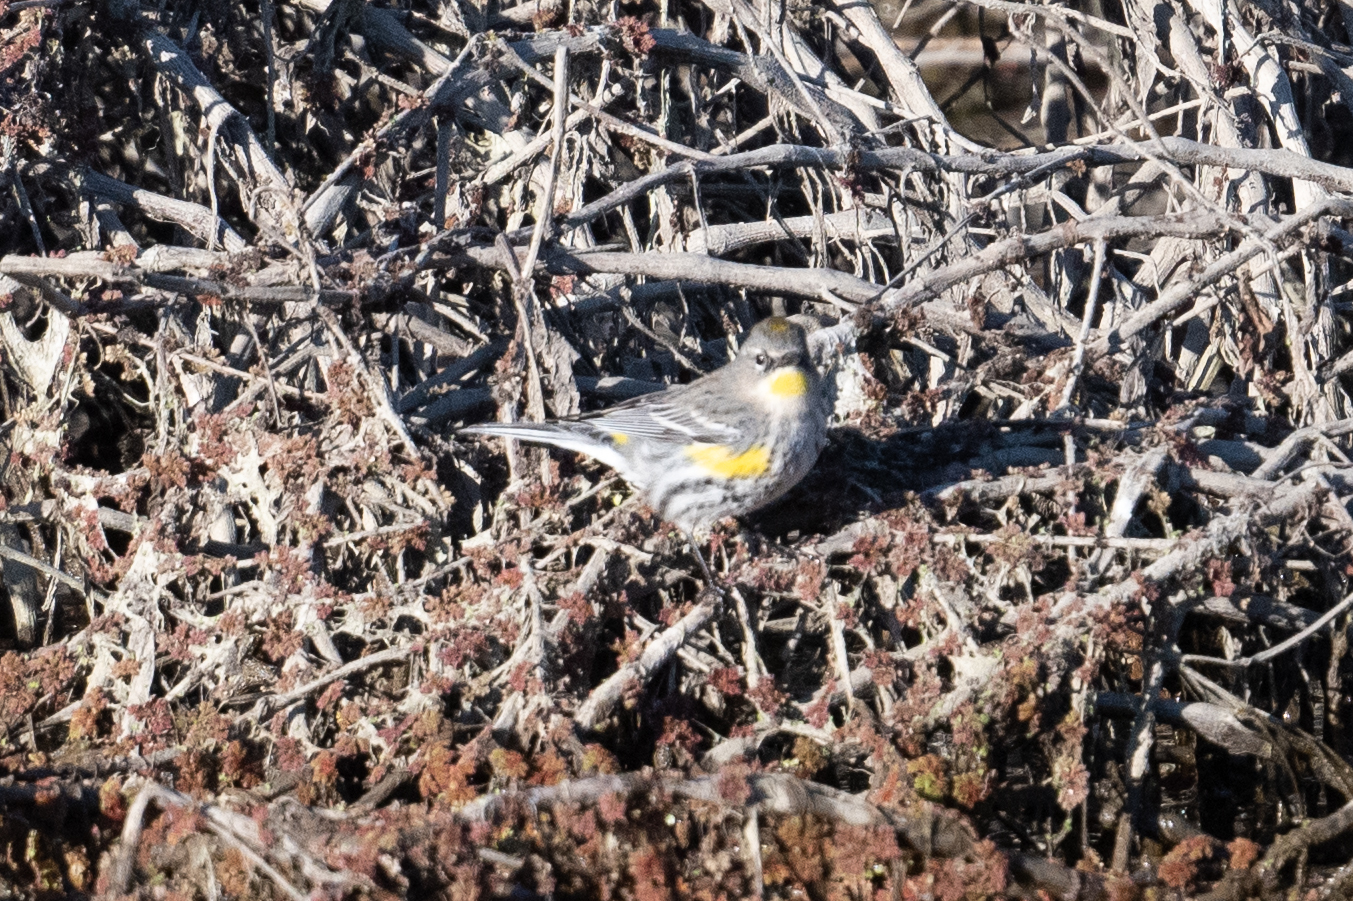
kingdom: Animalia
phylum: Chordata
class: Aves
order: Passeriformes
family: Parulidae
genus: Setophaga
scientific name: Setophaga coronata
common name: Myrtle warbler
